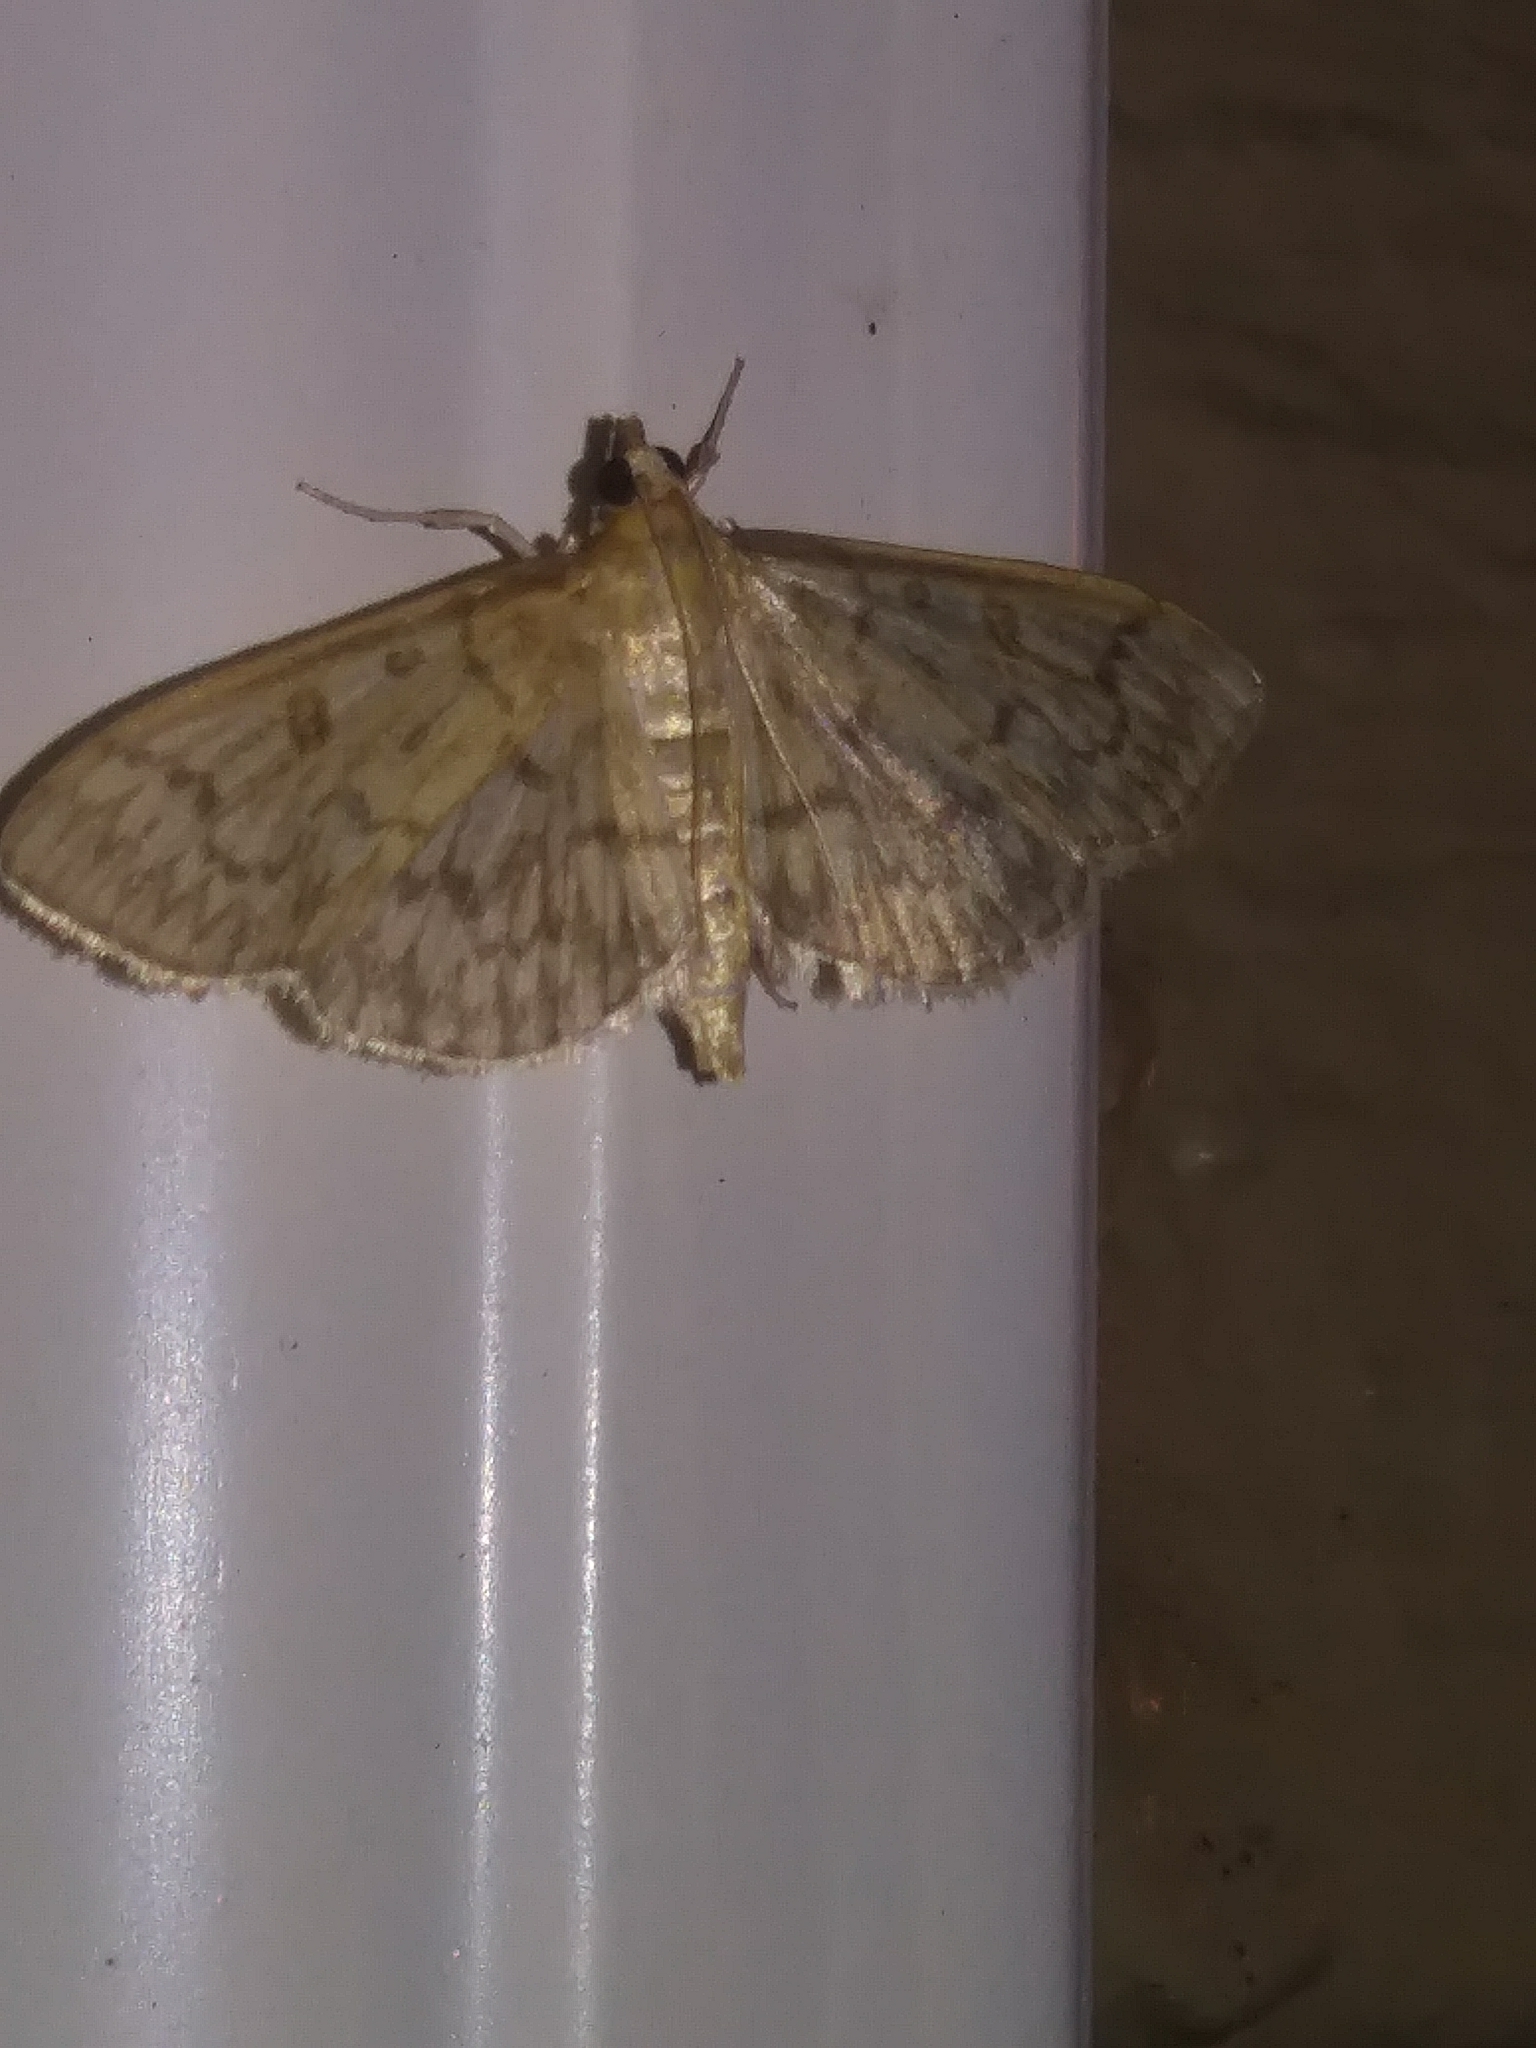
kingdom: Animalia
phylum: Arthropoda
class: Insecta
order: Lepidoptera
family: Crambidae
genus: Herpetogramma
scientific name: Herpetogramma pertextalis
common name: Bold-feathered grass moth
